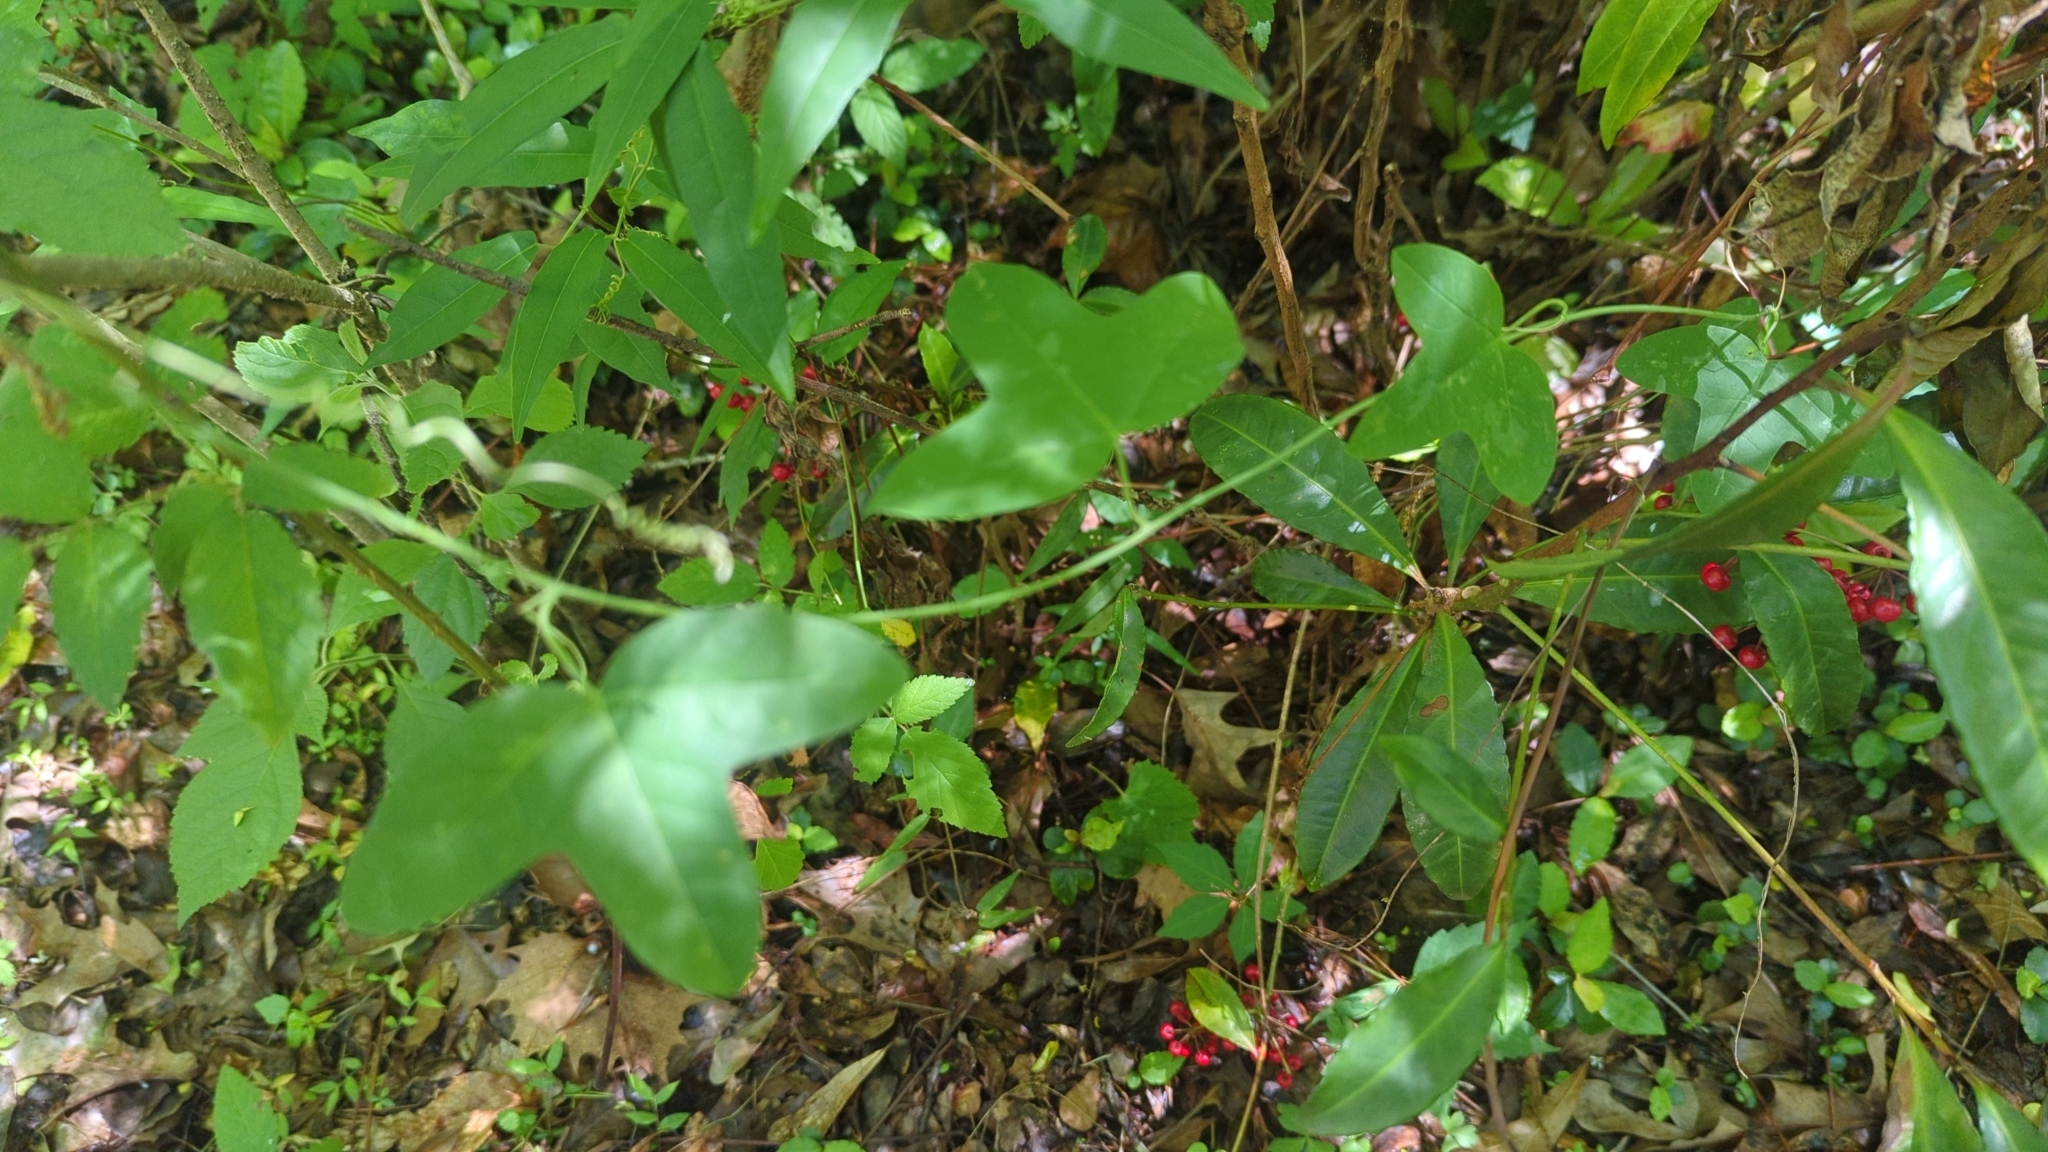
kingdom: Plantae
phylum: Tracheophyta
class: Magnoliopsida
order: Malpighiales
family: Passifloraceae
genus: Passiflora
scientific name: Passiflora lutea
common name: Yellow passionflower
